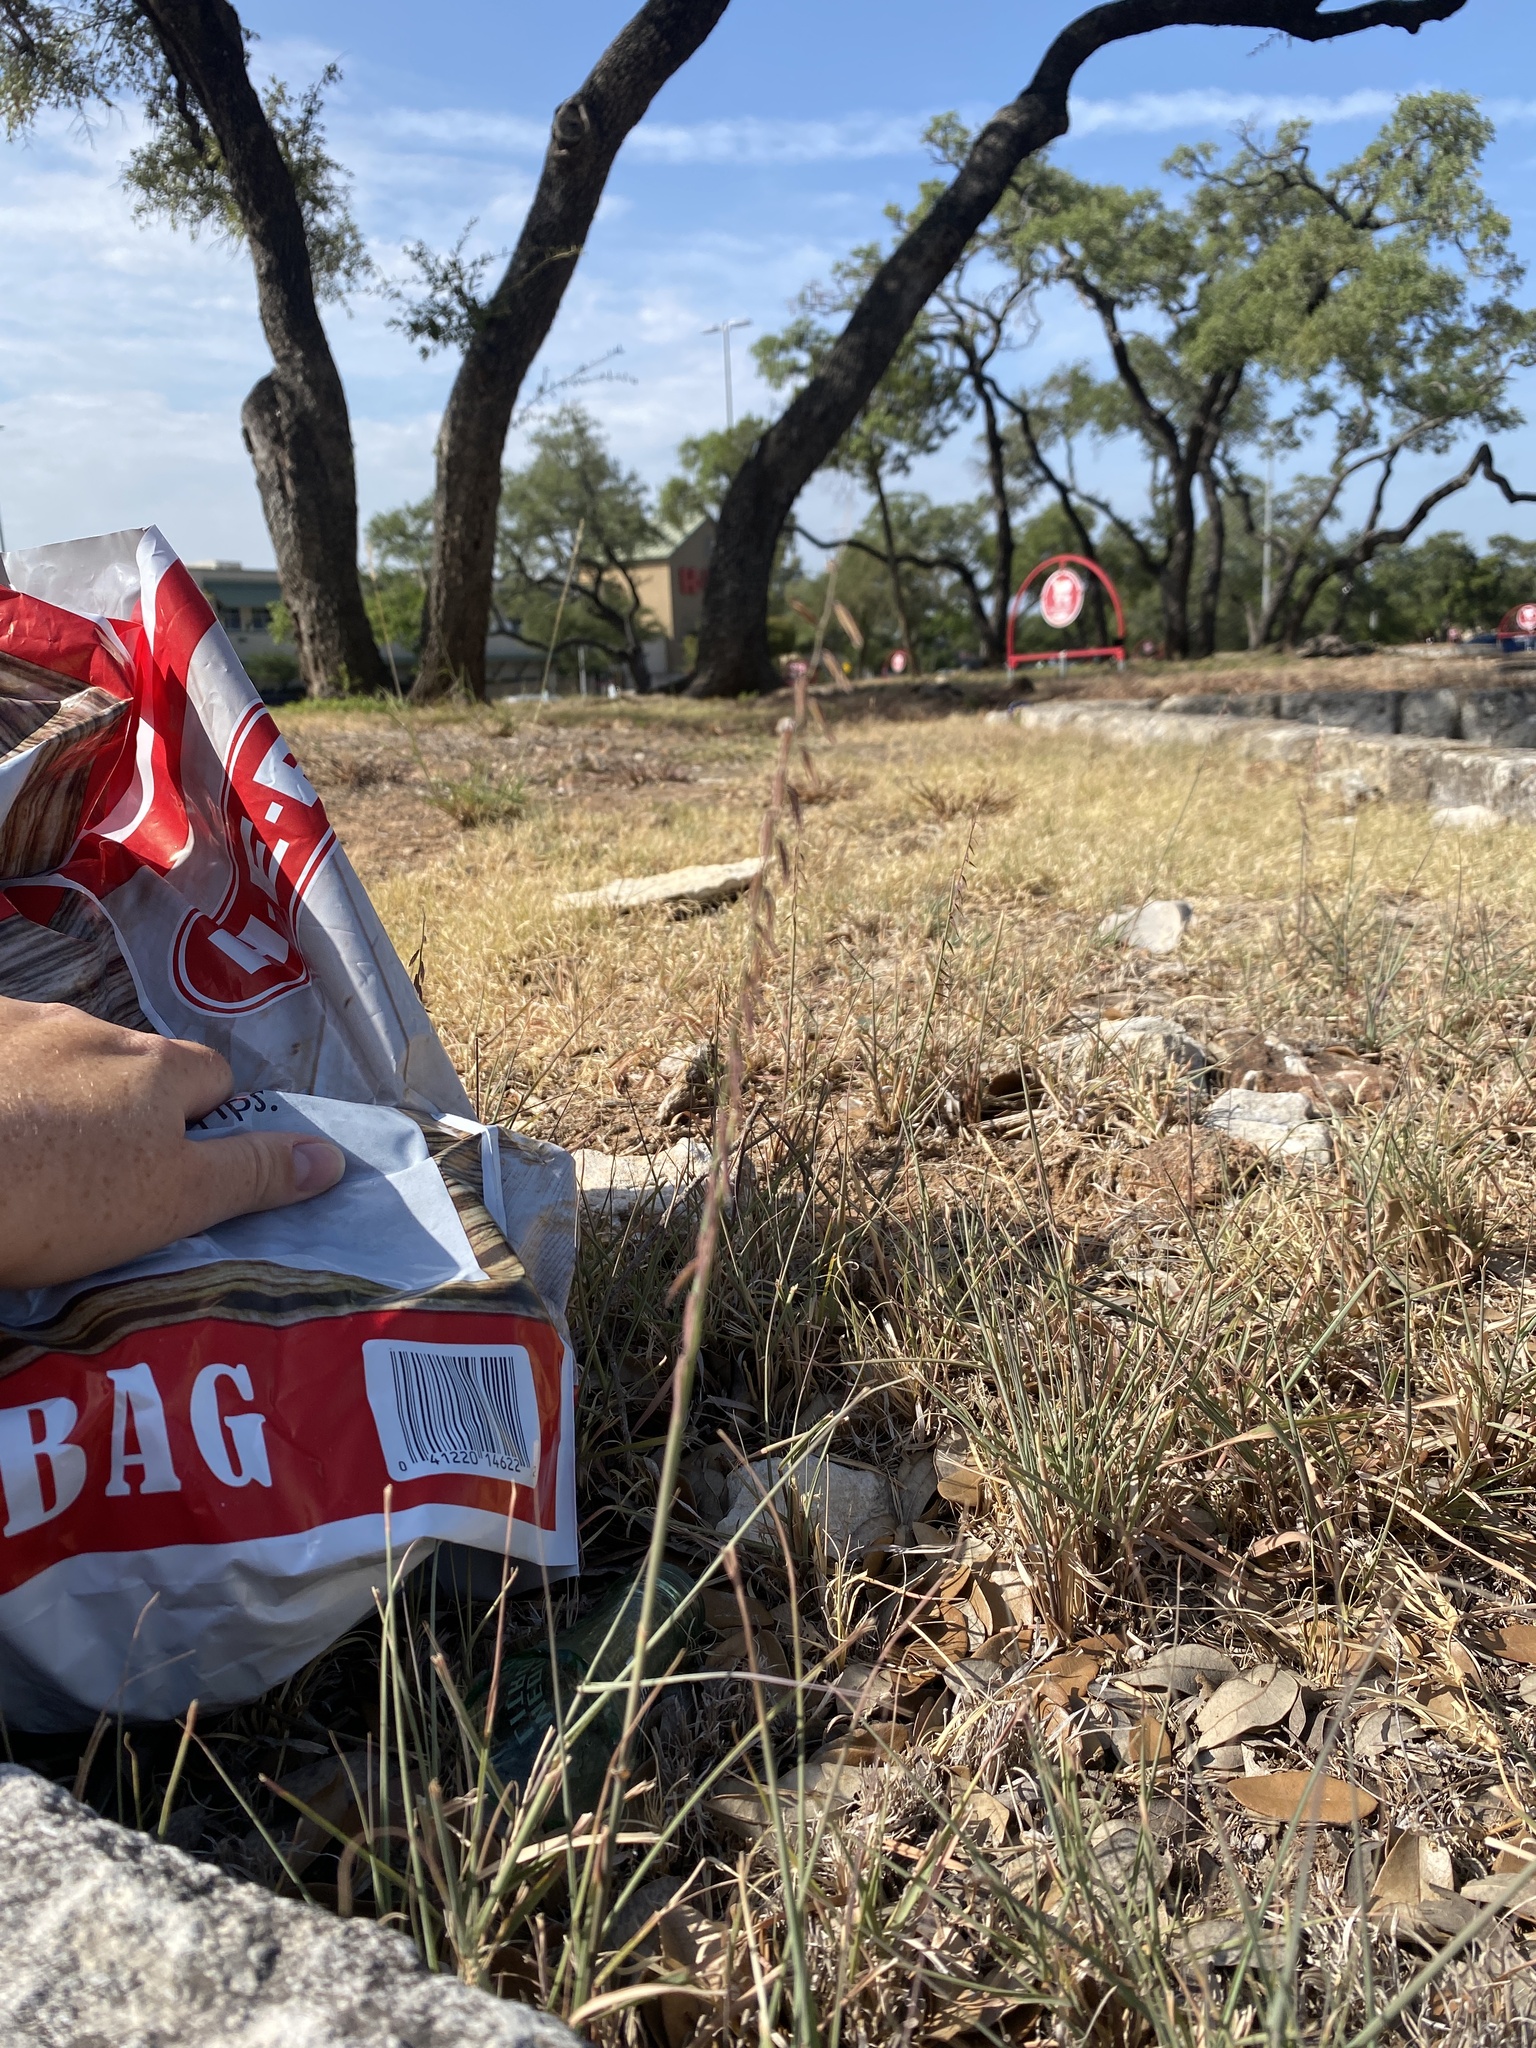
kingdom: Plantae
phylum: Tracheophyta
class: Liliopsida
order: Poales
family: Poaceae
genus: Bouteloua
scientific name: Bouteloua curtipendula
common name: Side-oats grama
